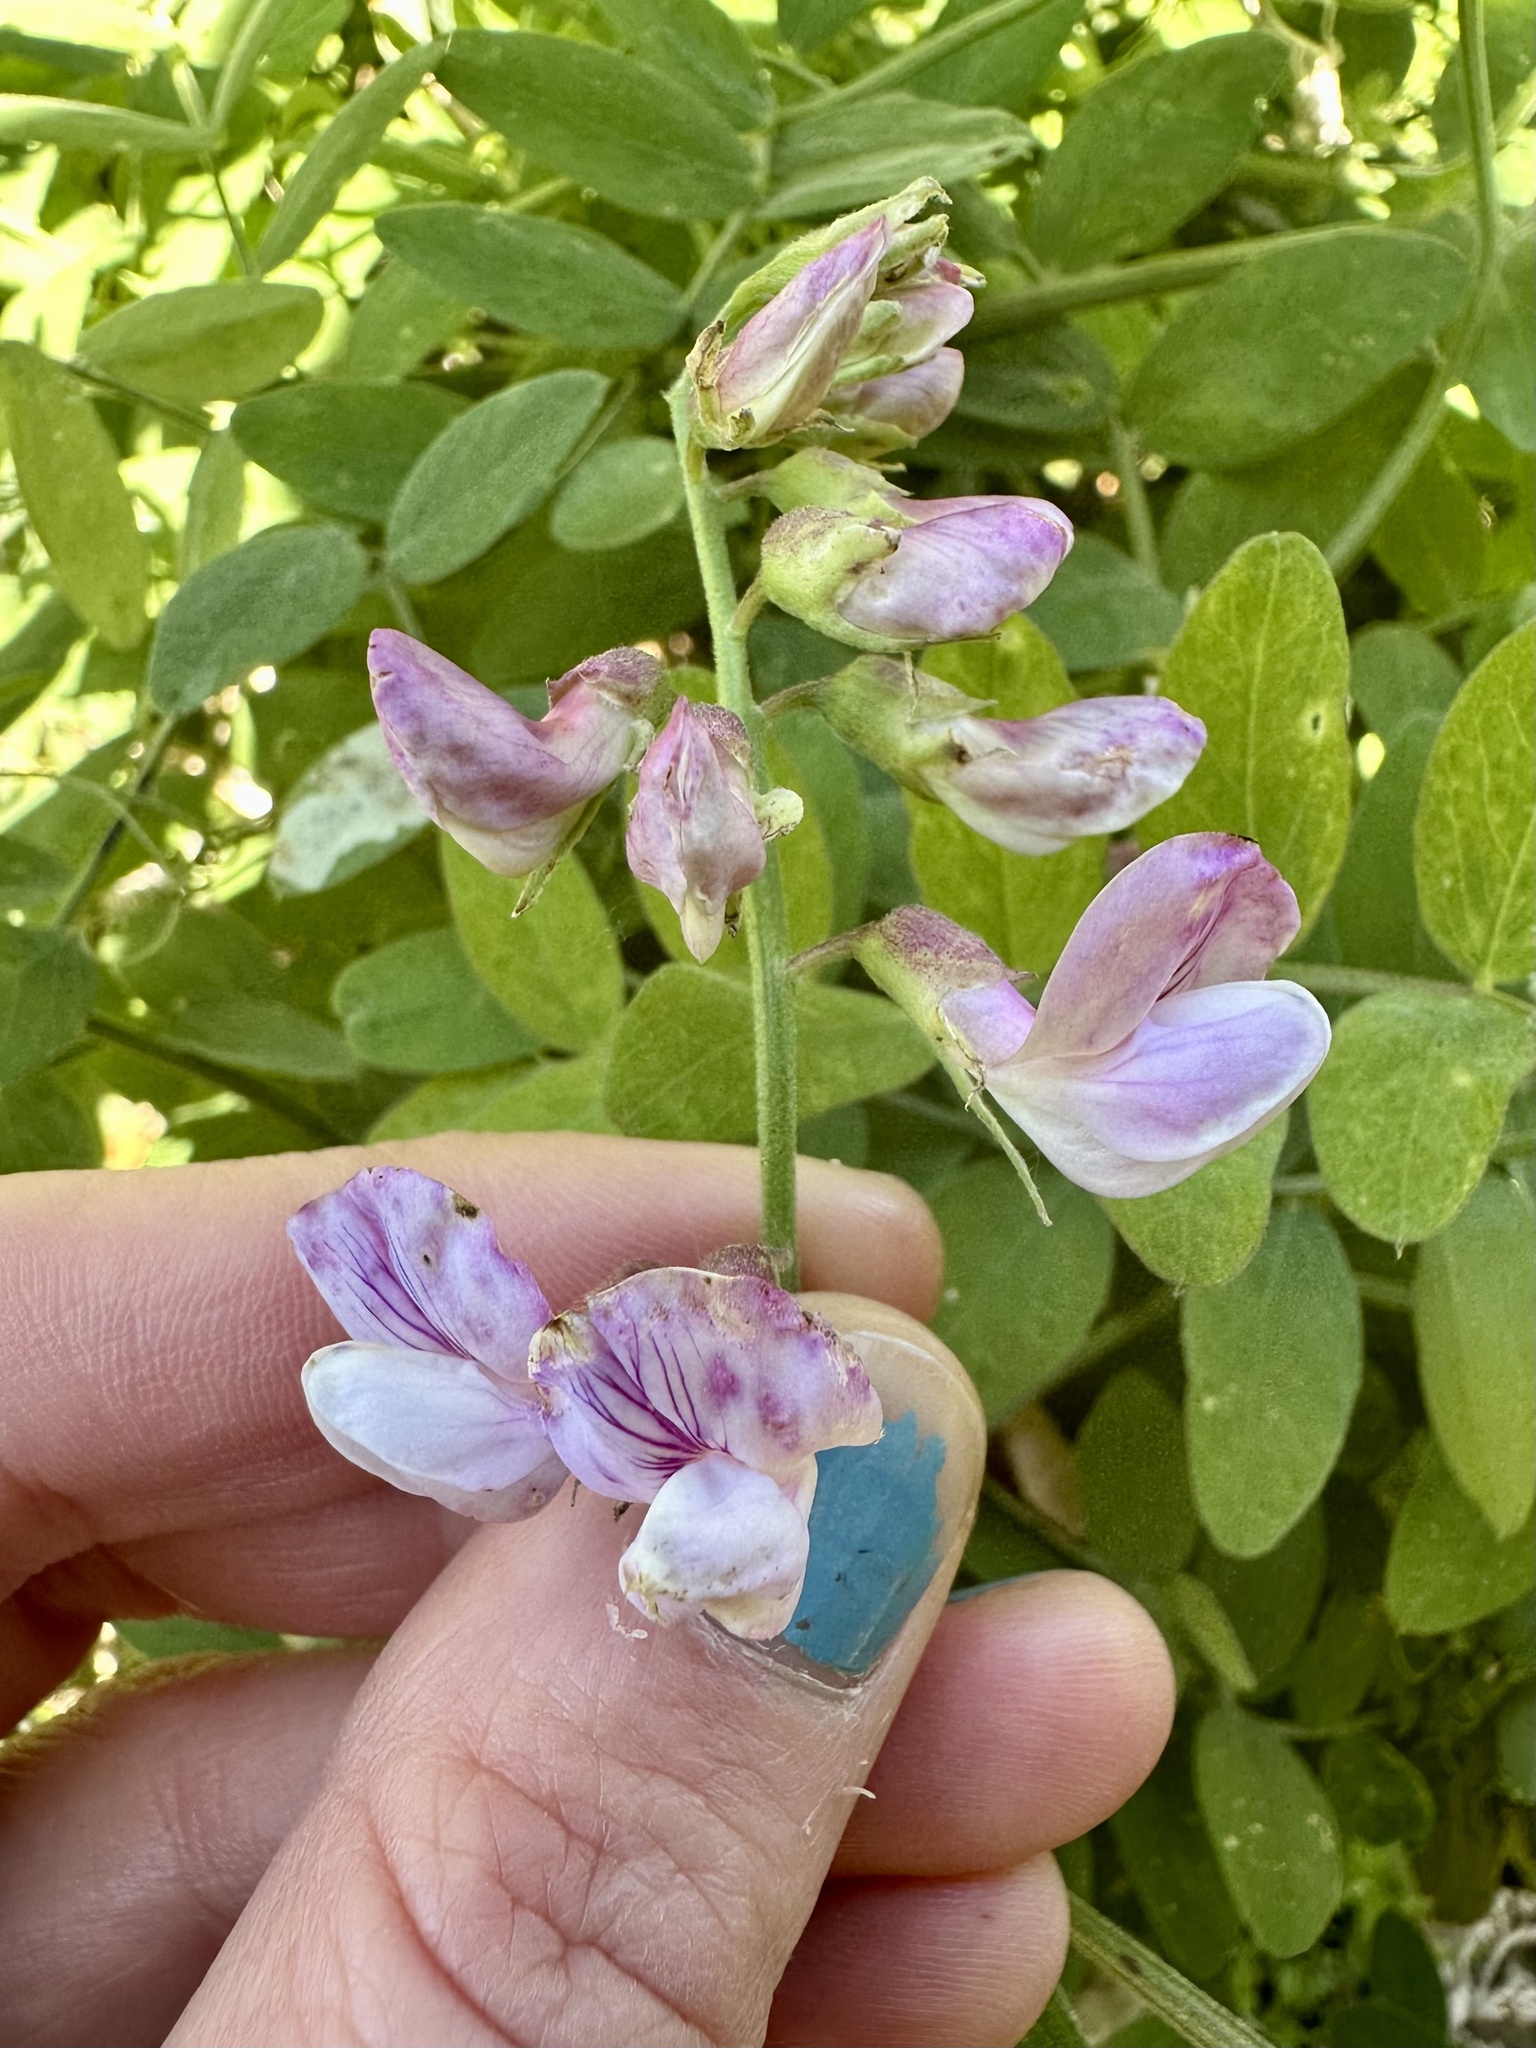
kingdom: Plantae
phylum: Tracheophyta
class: Magnoliopsida
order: Fabales
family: Fabaceae
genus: Lathyrus
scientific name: Lathyrus vestitus
